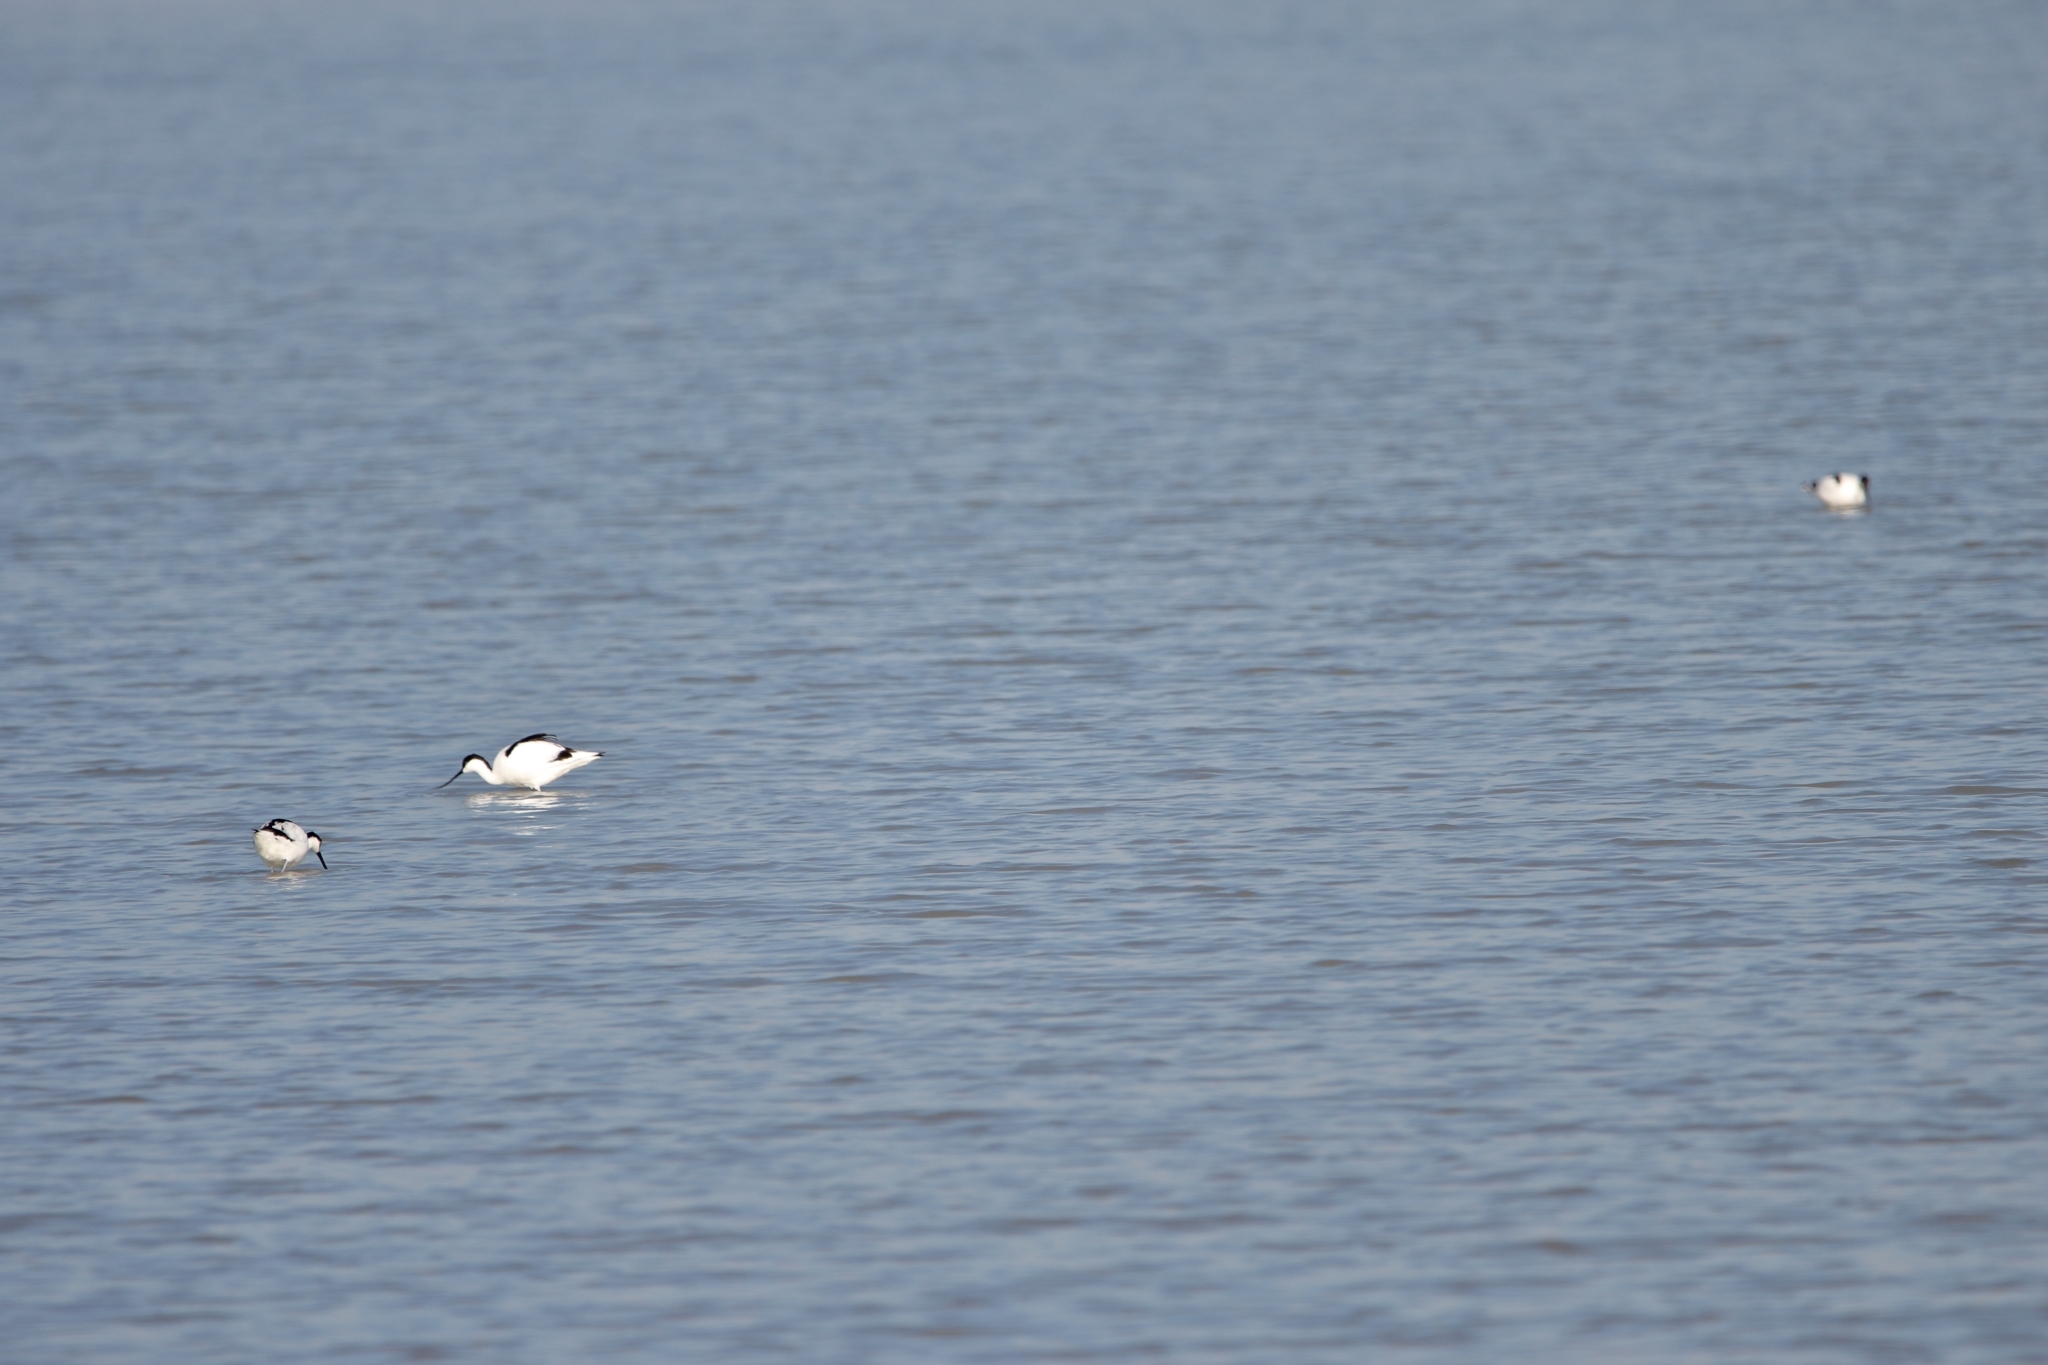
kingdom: Animalia
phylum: Chordata
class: Aves
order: Charadriiformes
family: Recurvirostridae
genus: Recurvirostra
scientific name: Recurvirostra avosetta
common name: Pied avocet
